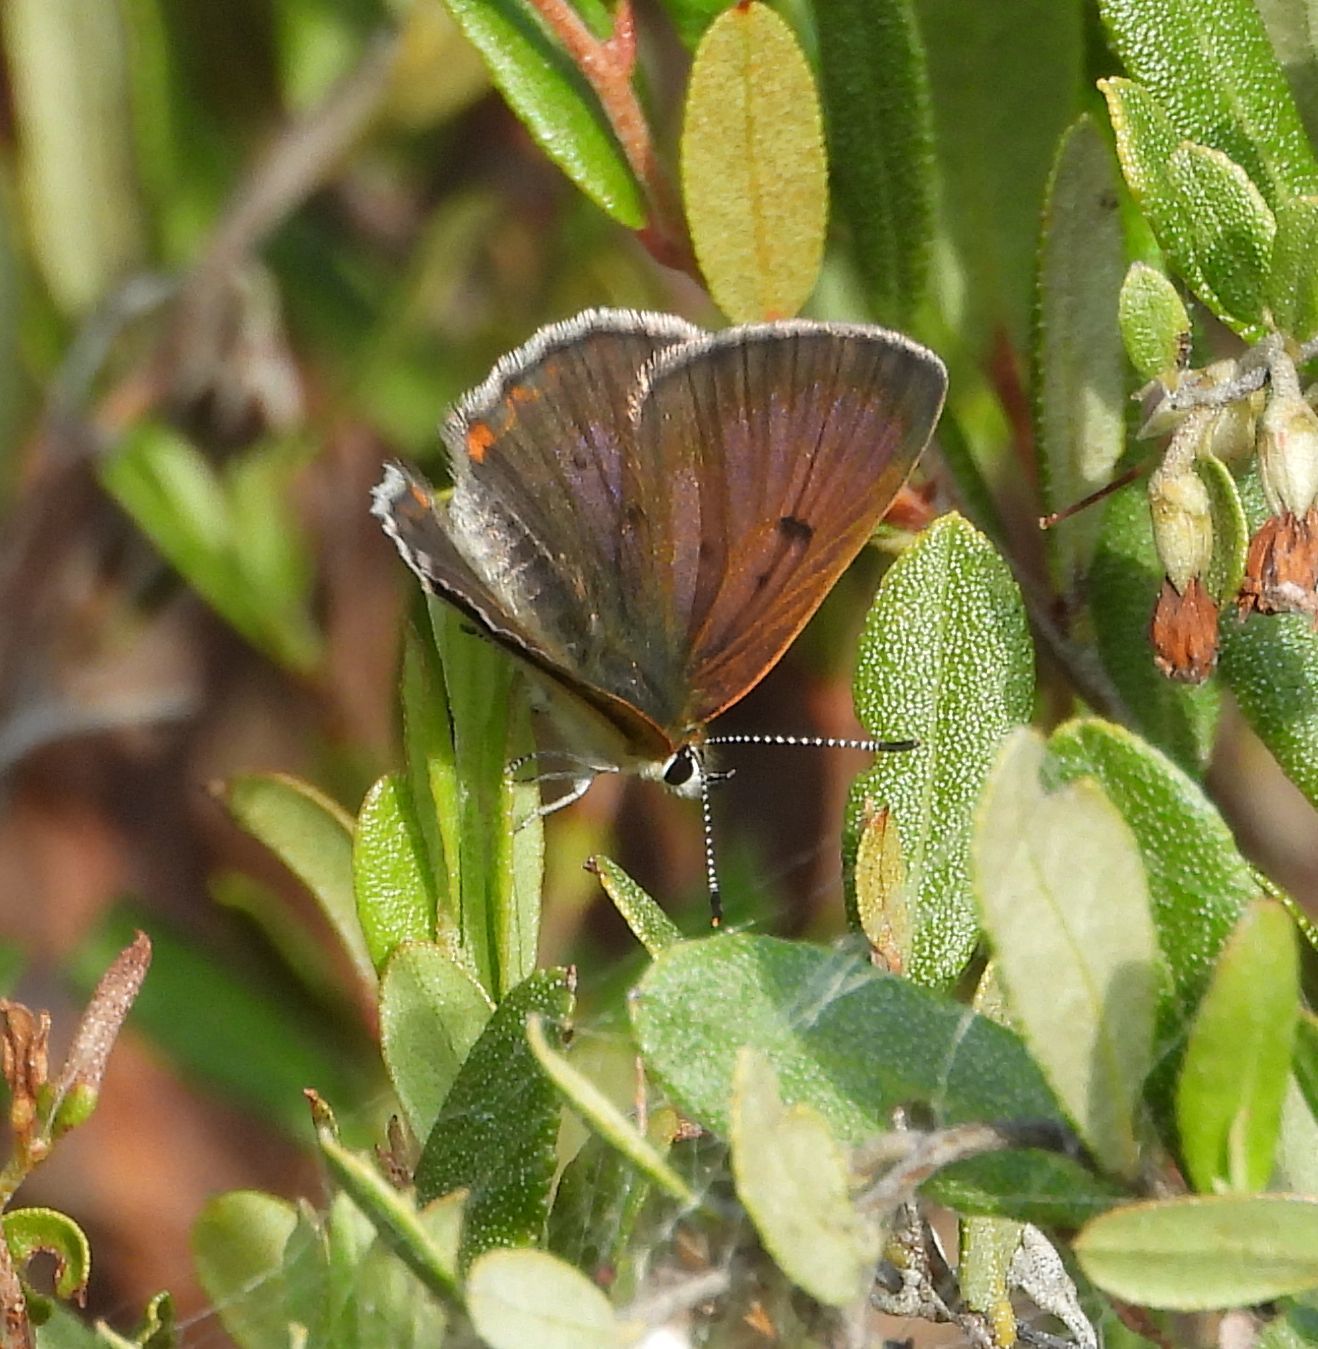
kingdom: Animalia
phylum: Arthropoda
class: Insecta
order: Lepidoptera
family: Lycaenidae
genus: Tharsalea
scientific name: Tharsalea epixanthe
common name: Bog copper
